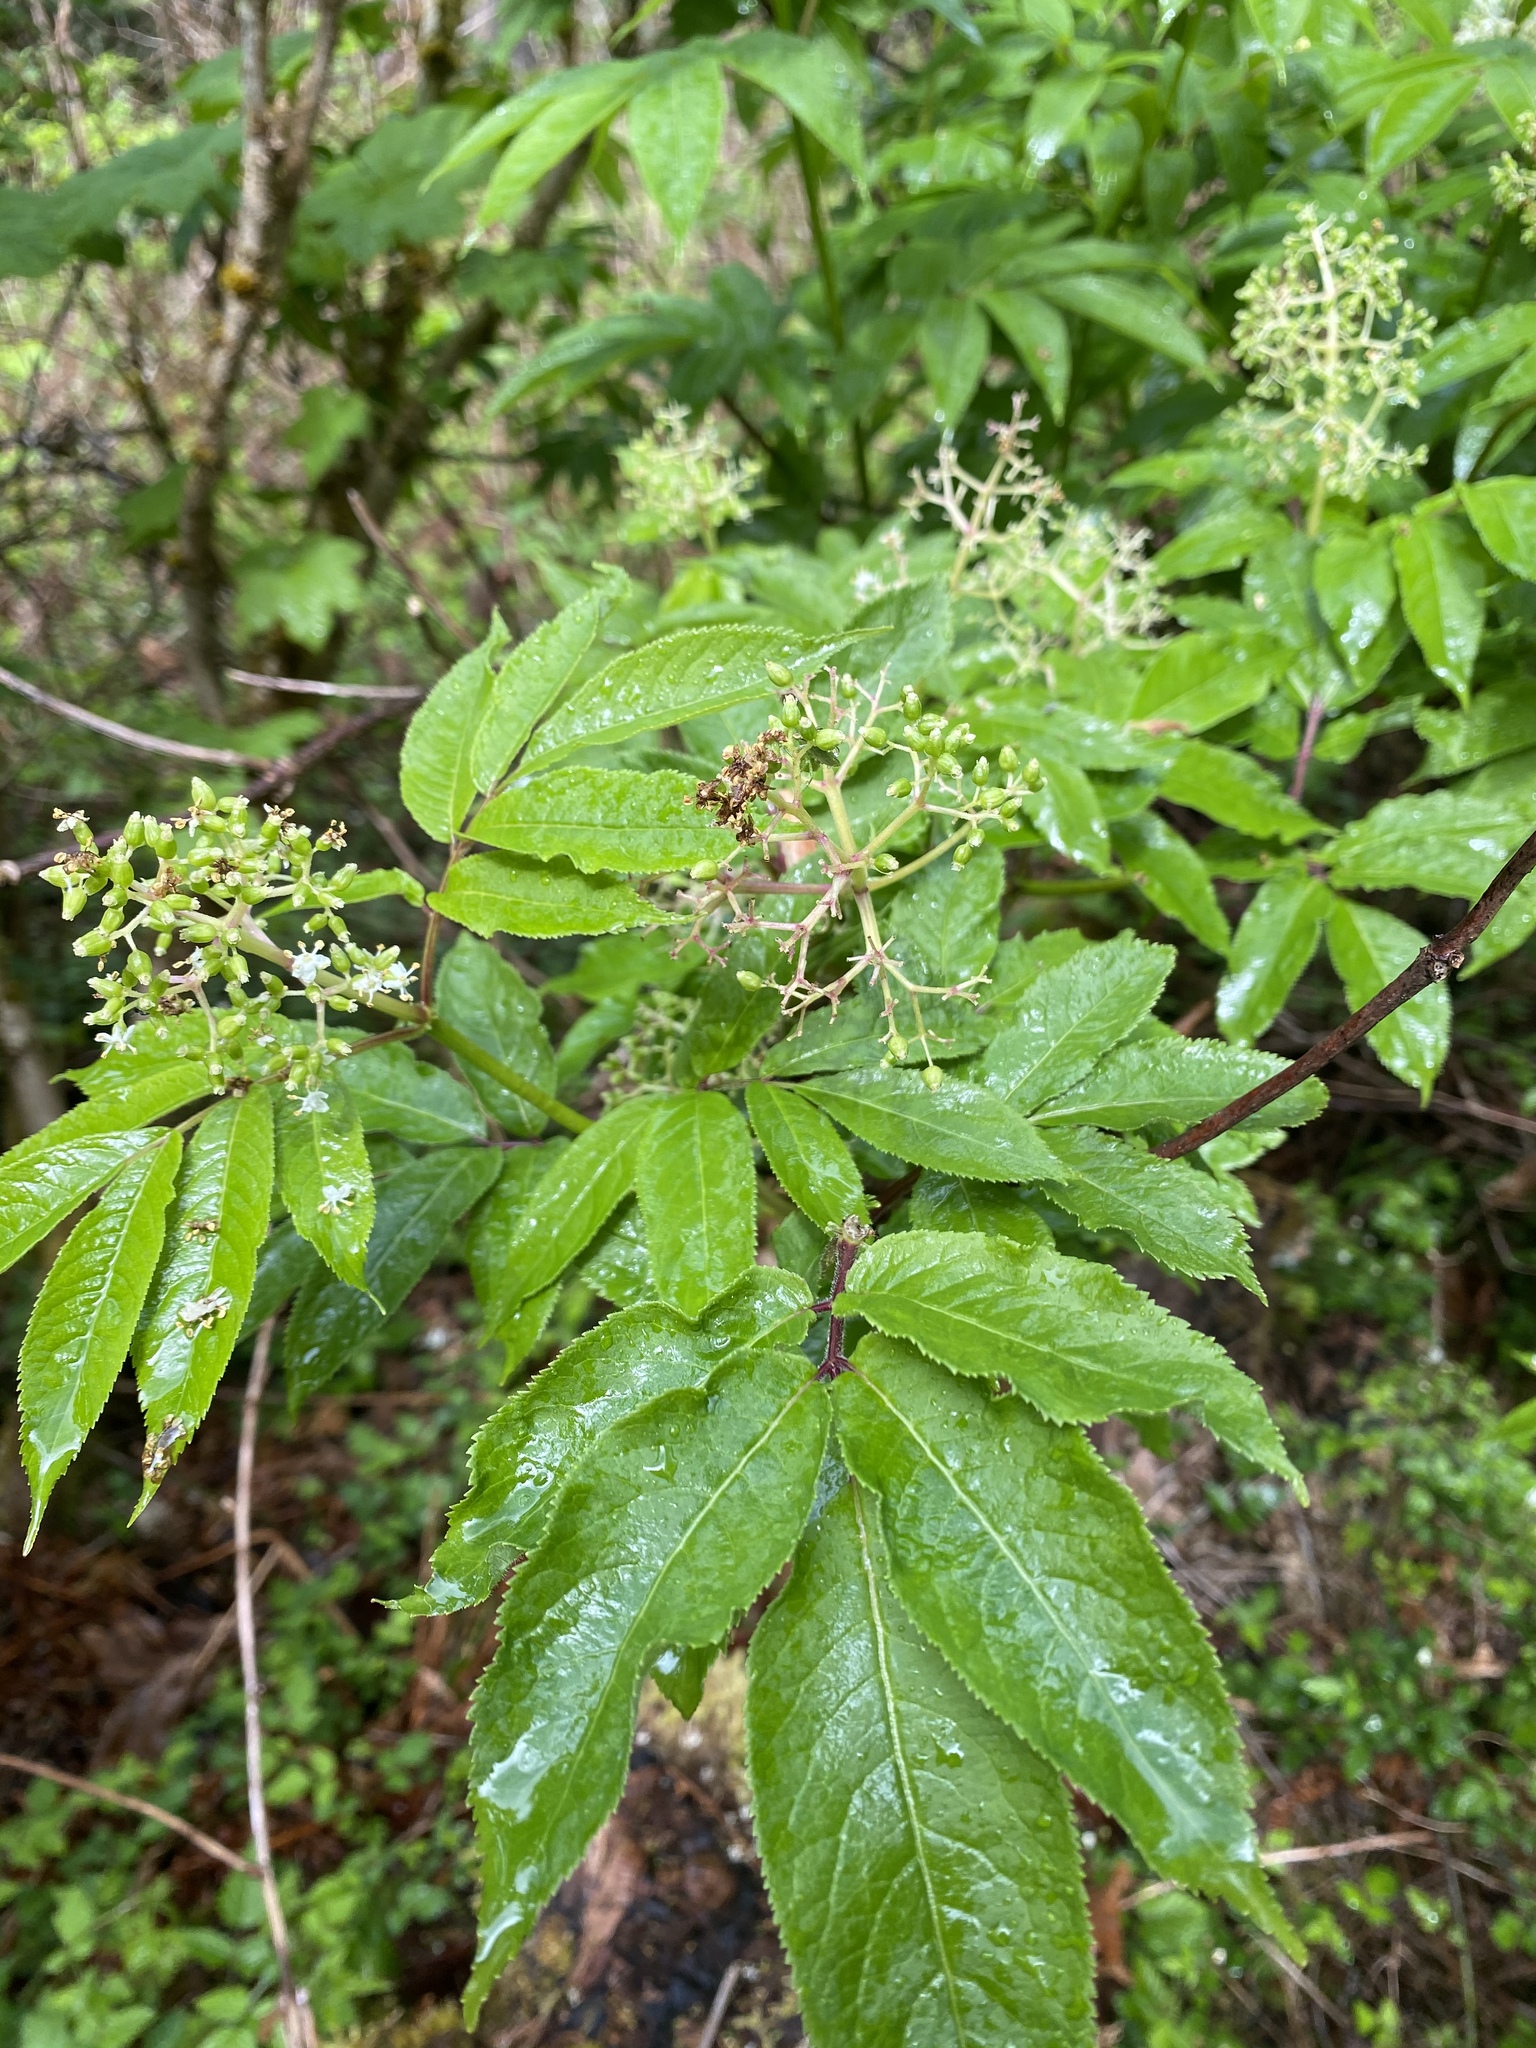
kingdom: Plantae
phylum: Tracheophyta
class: Magnoliopsida
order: Dipsacales
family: Viburnaceae
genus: Sambucus
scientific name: Sambucus racemosa
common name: Red-berried elder
